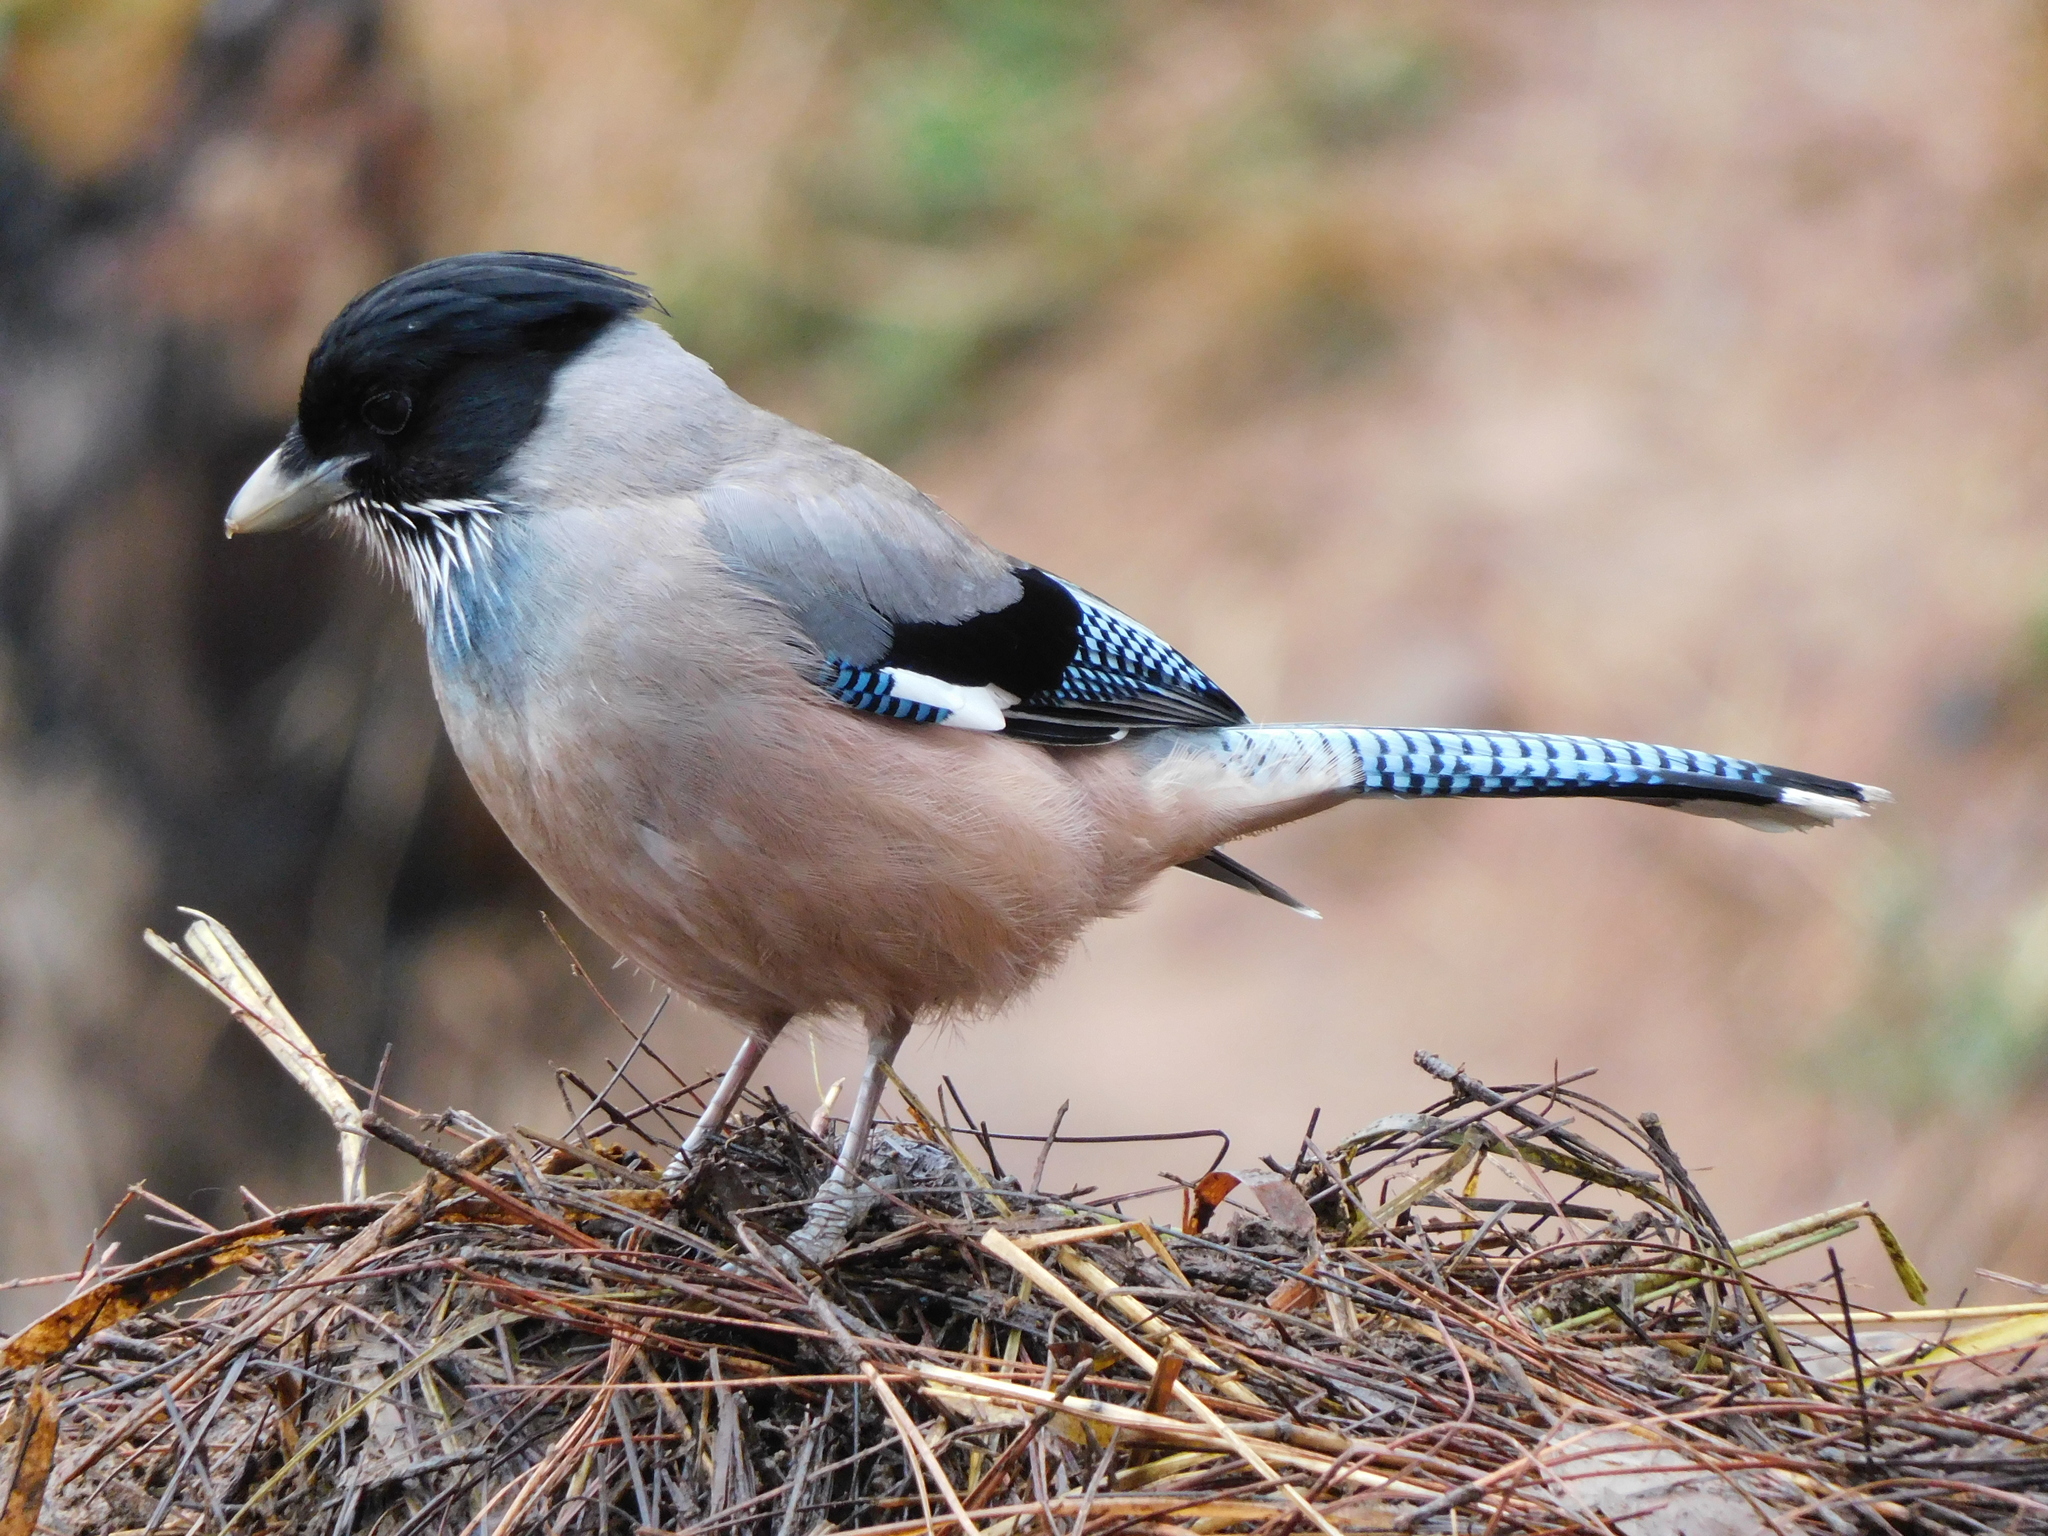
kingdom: Animalia
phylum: Chordata
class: Aves
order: Passeriformes
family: Corvidae
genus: Garrulus
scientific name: Garrulus lanceolatus
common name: Black-headed jay
